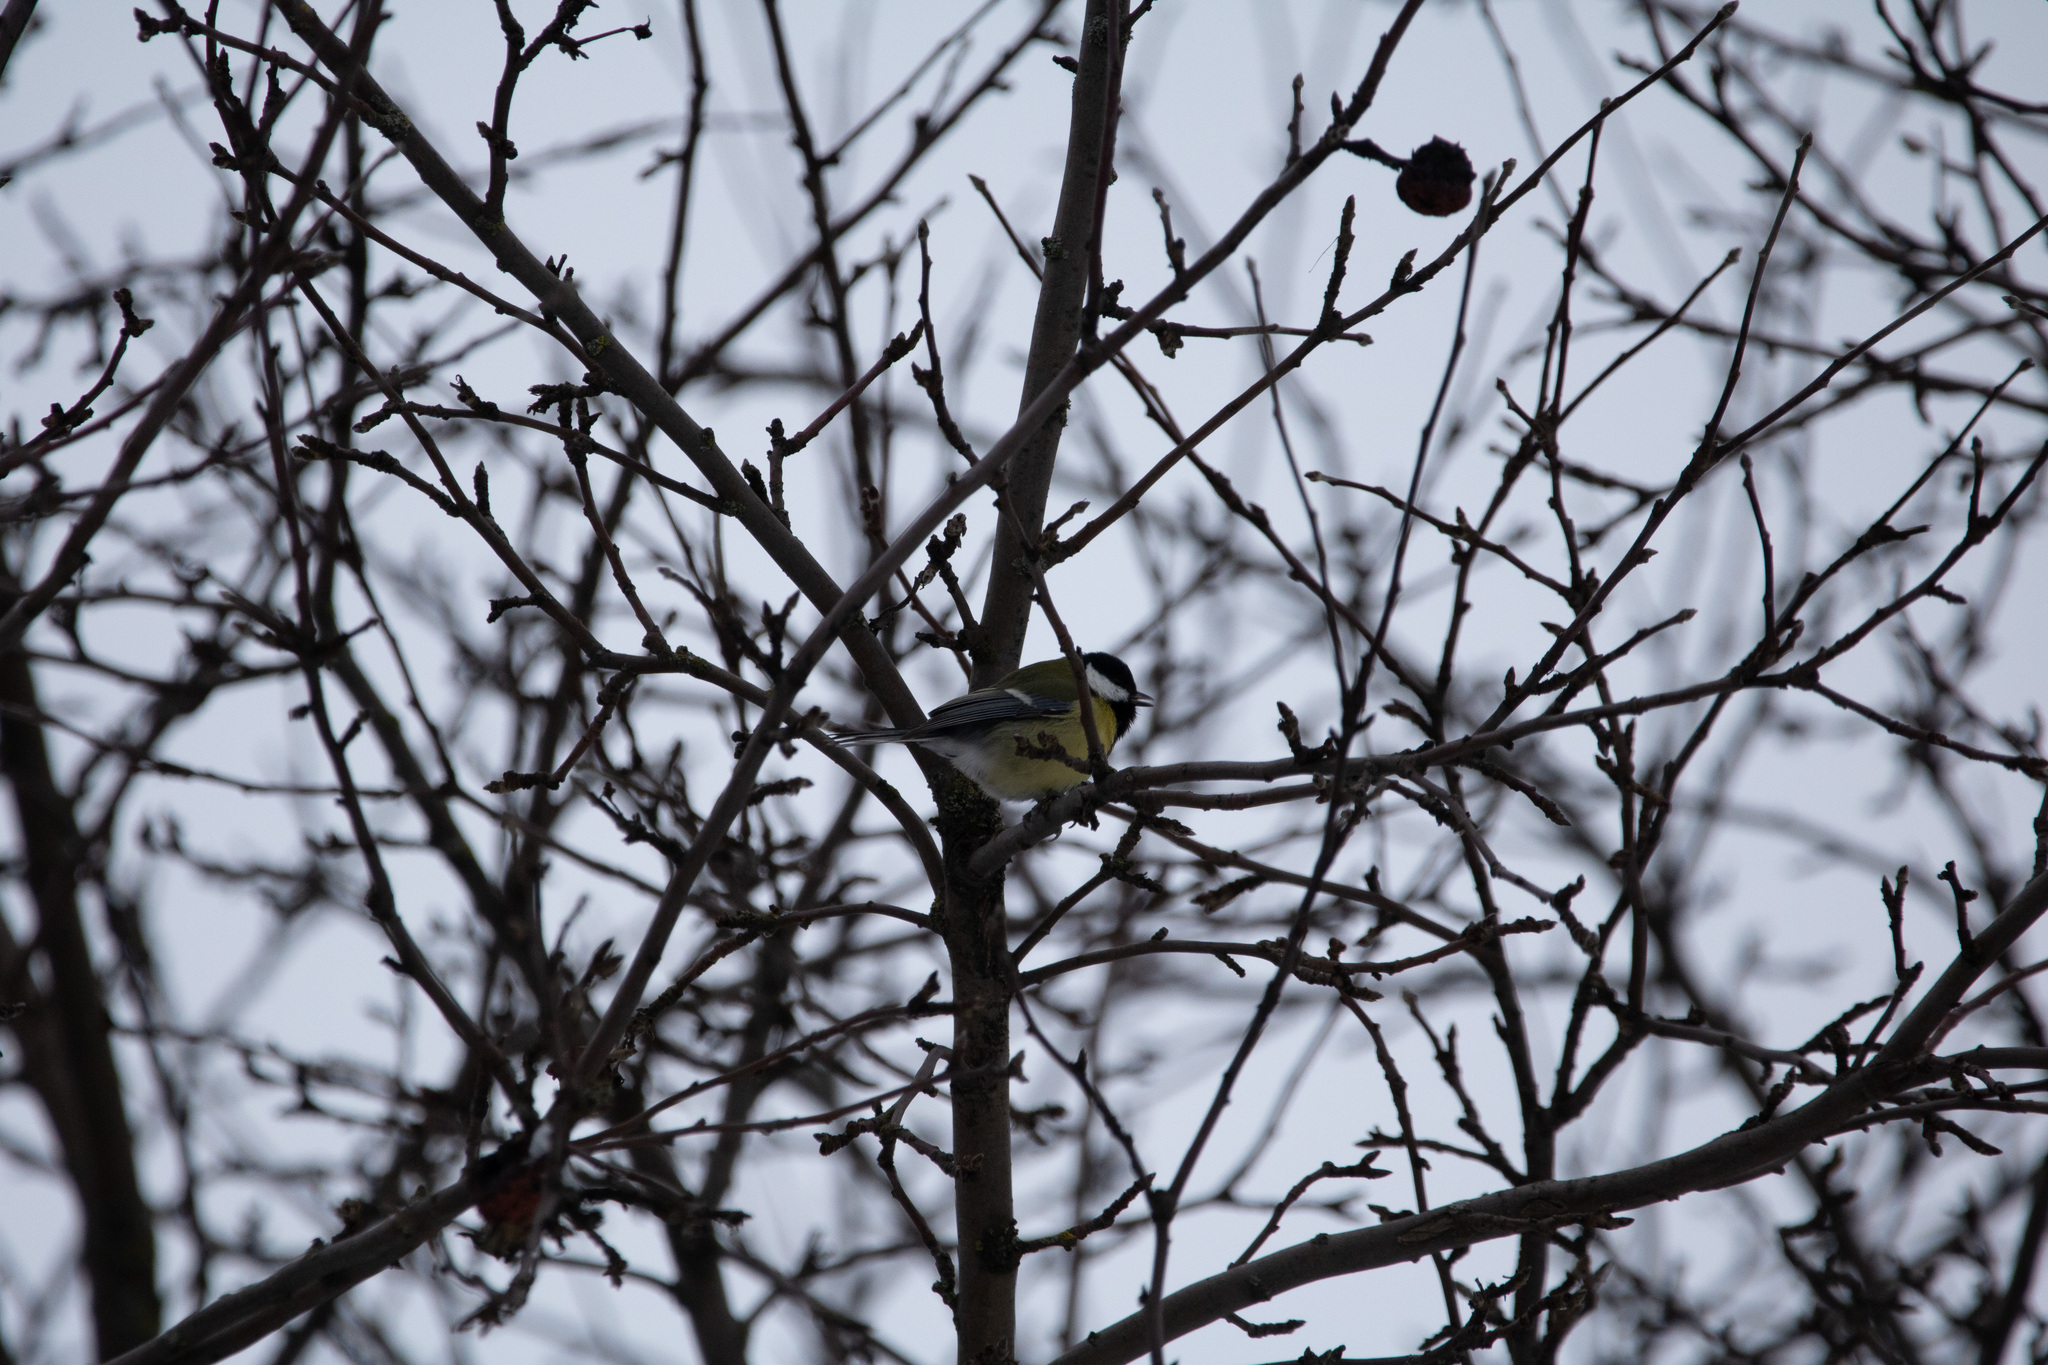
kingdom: Animalia
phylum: Chordata
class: Aves
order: Passeriformes
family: Paridae
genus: Parus
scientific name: Parus major
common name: Great tit
